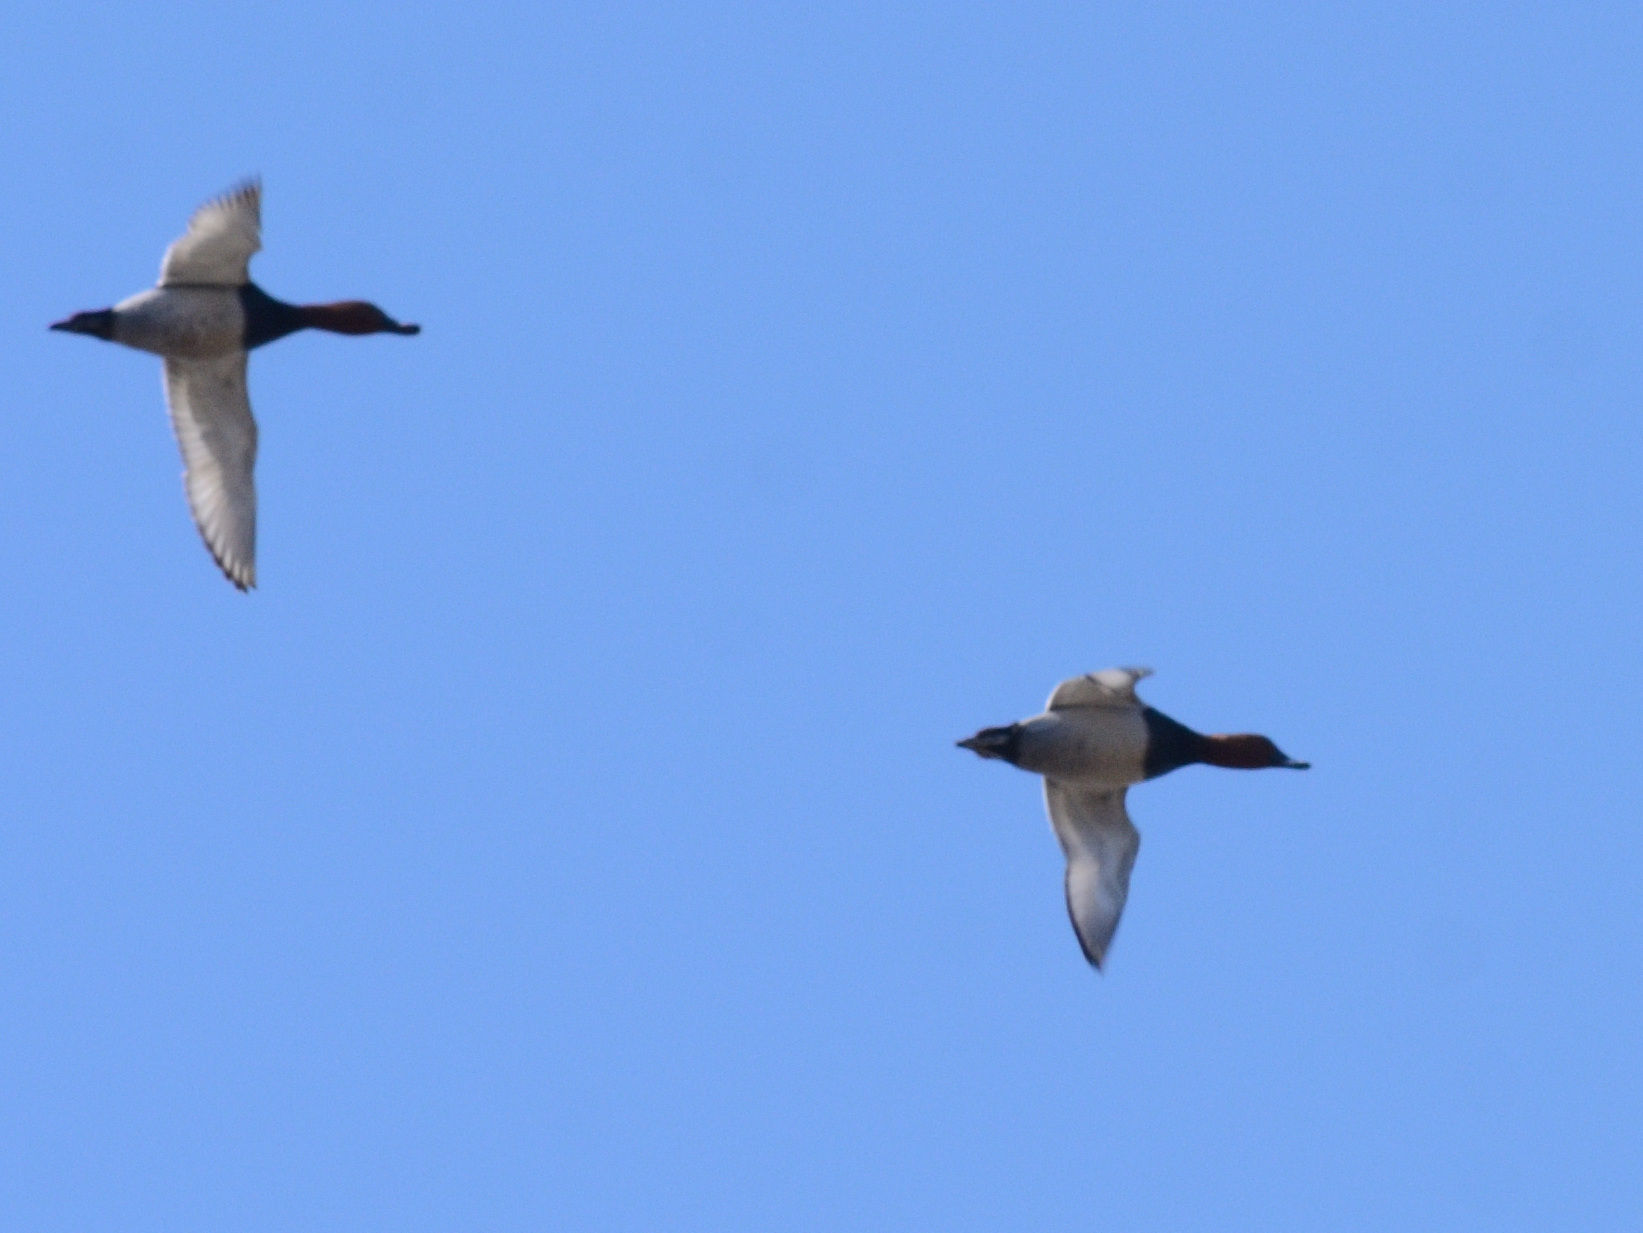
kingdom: Animalia
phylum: Chordata
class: Aves
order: Anseriformes
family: Anatidae
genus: Aythya
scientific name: Aythya ferina
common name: Common pochard
